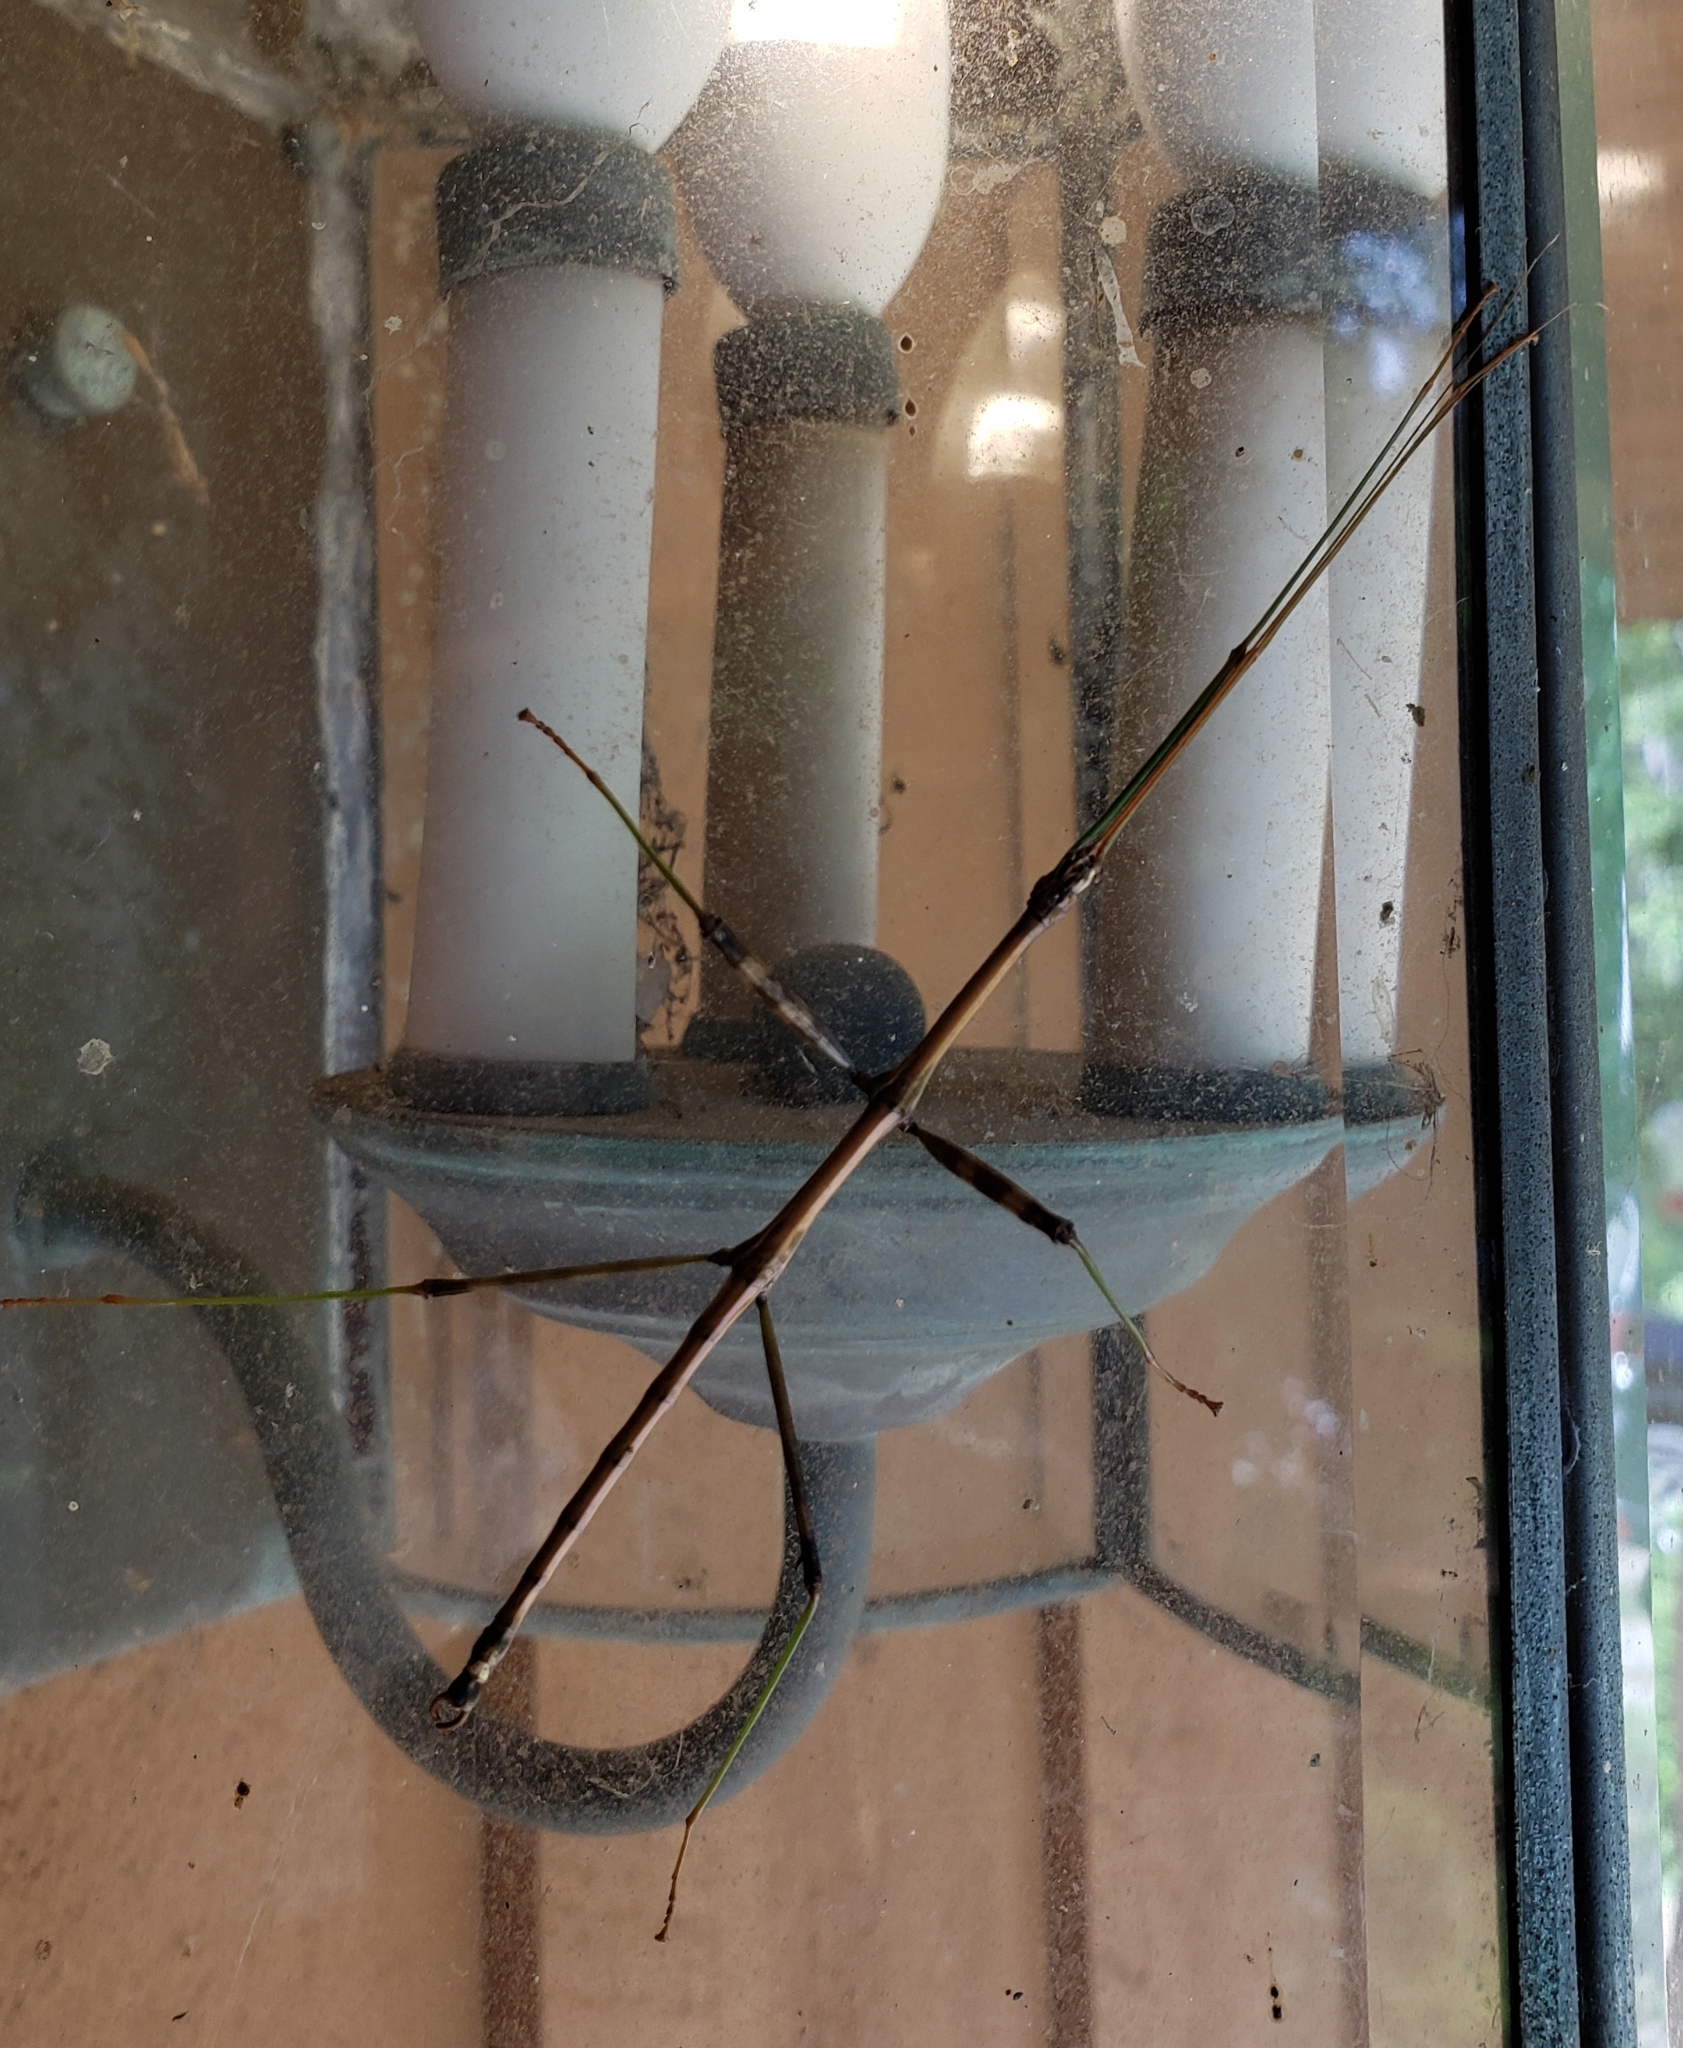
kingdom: Animalia
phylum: Arthropoda
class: Insecta
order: Phasmida
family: Diapheromeridae
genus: Diapheromera
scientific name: Diapheromera femorata
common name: Common american walkingstick
